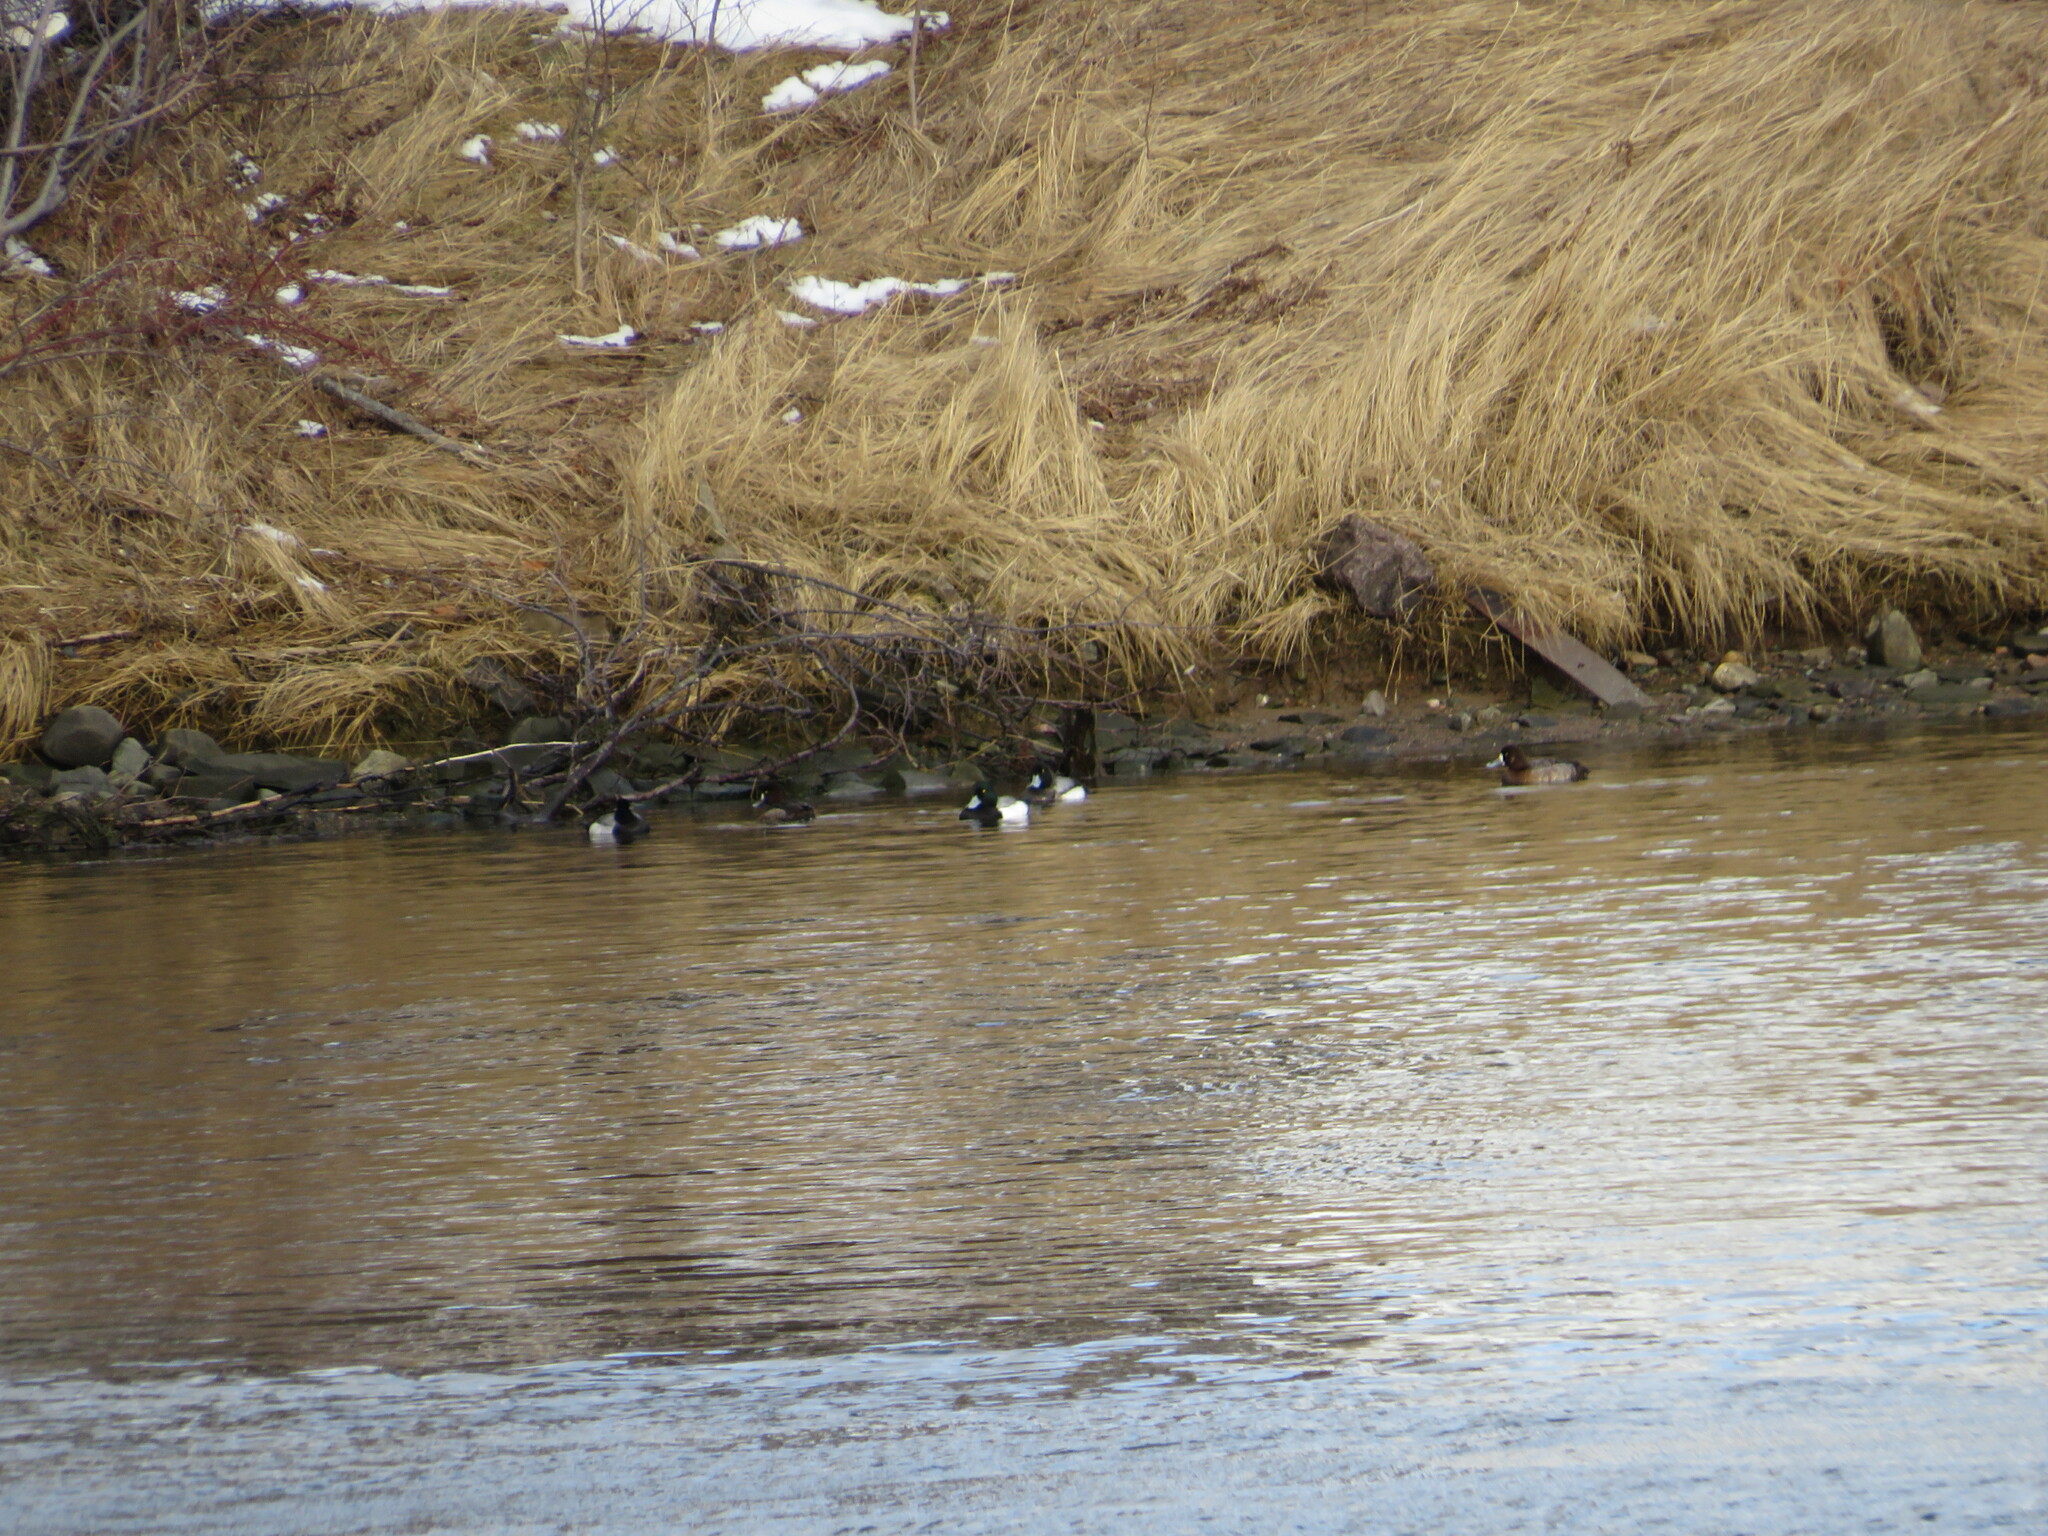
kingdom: Animalia
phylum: Chordata
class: Aves
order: Anseriformes
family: Anatidae
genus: Aythya
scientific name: Aythya marila
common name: Greater scaup
